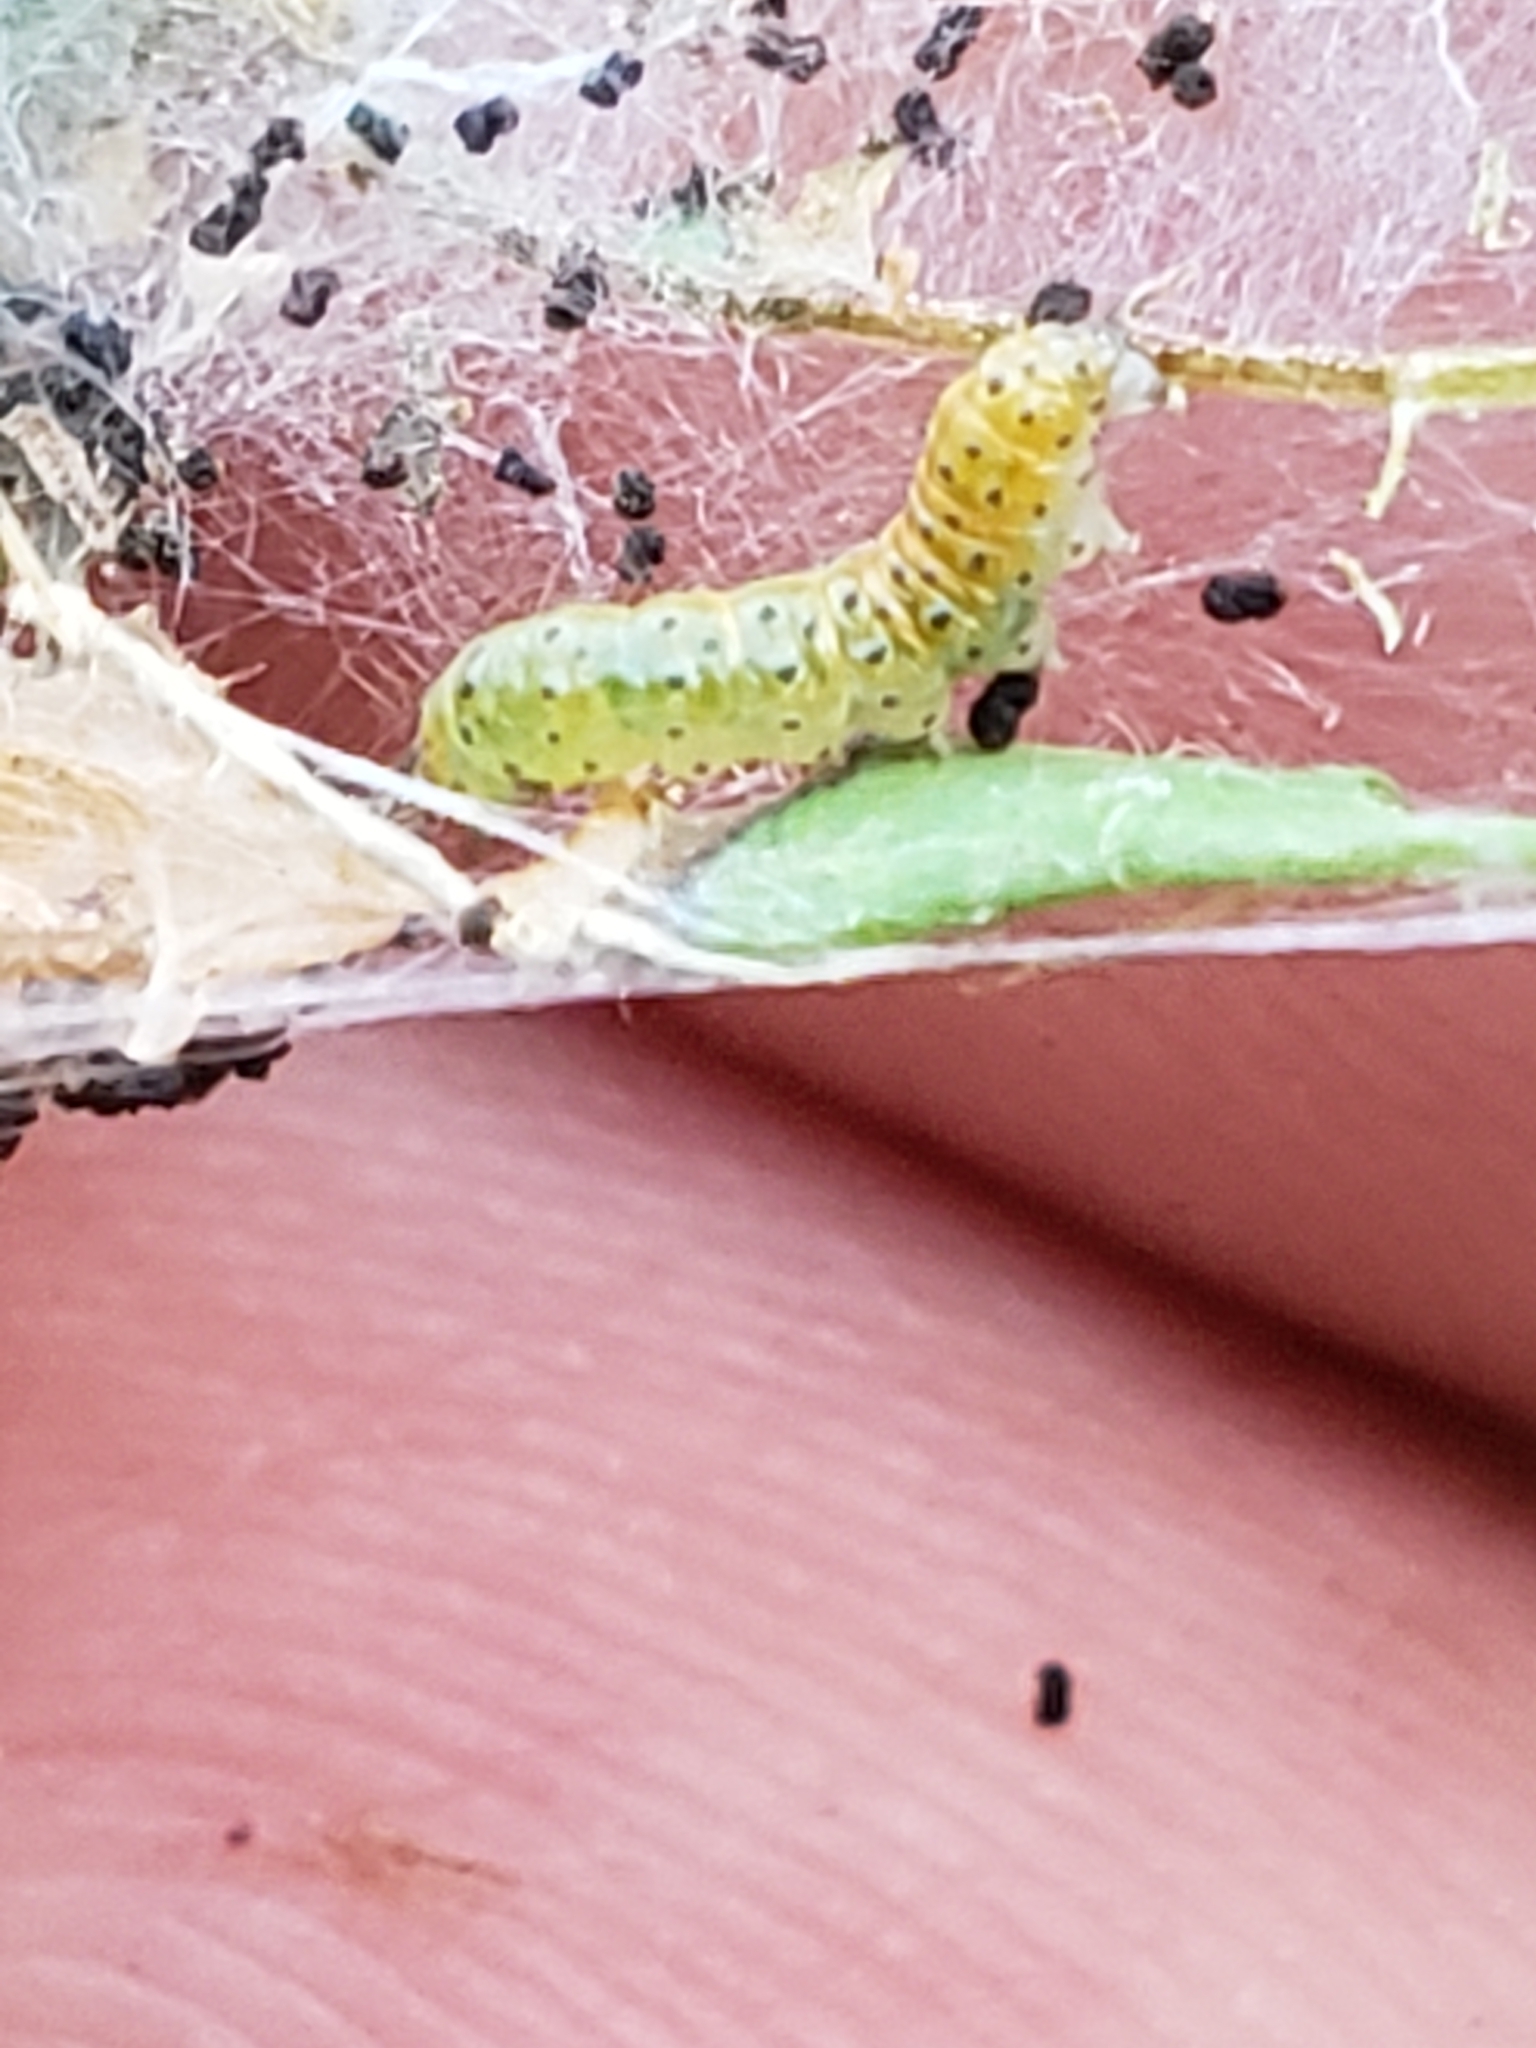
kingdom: Animalia
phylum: Arthropoda
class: Insecta
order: Lepidoptera
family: Crambidae
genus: Saucrobotys
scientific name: Saucrobotys futilalis
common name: Dogbane saucrobotys moth
